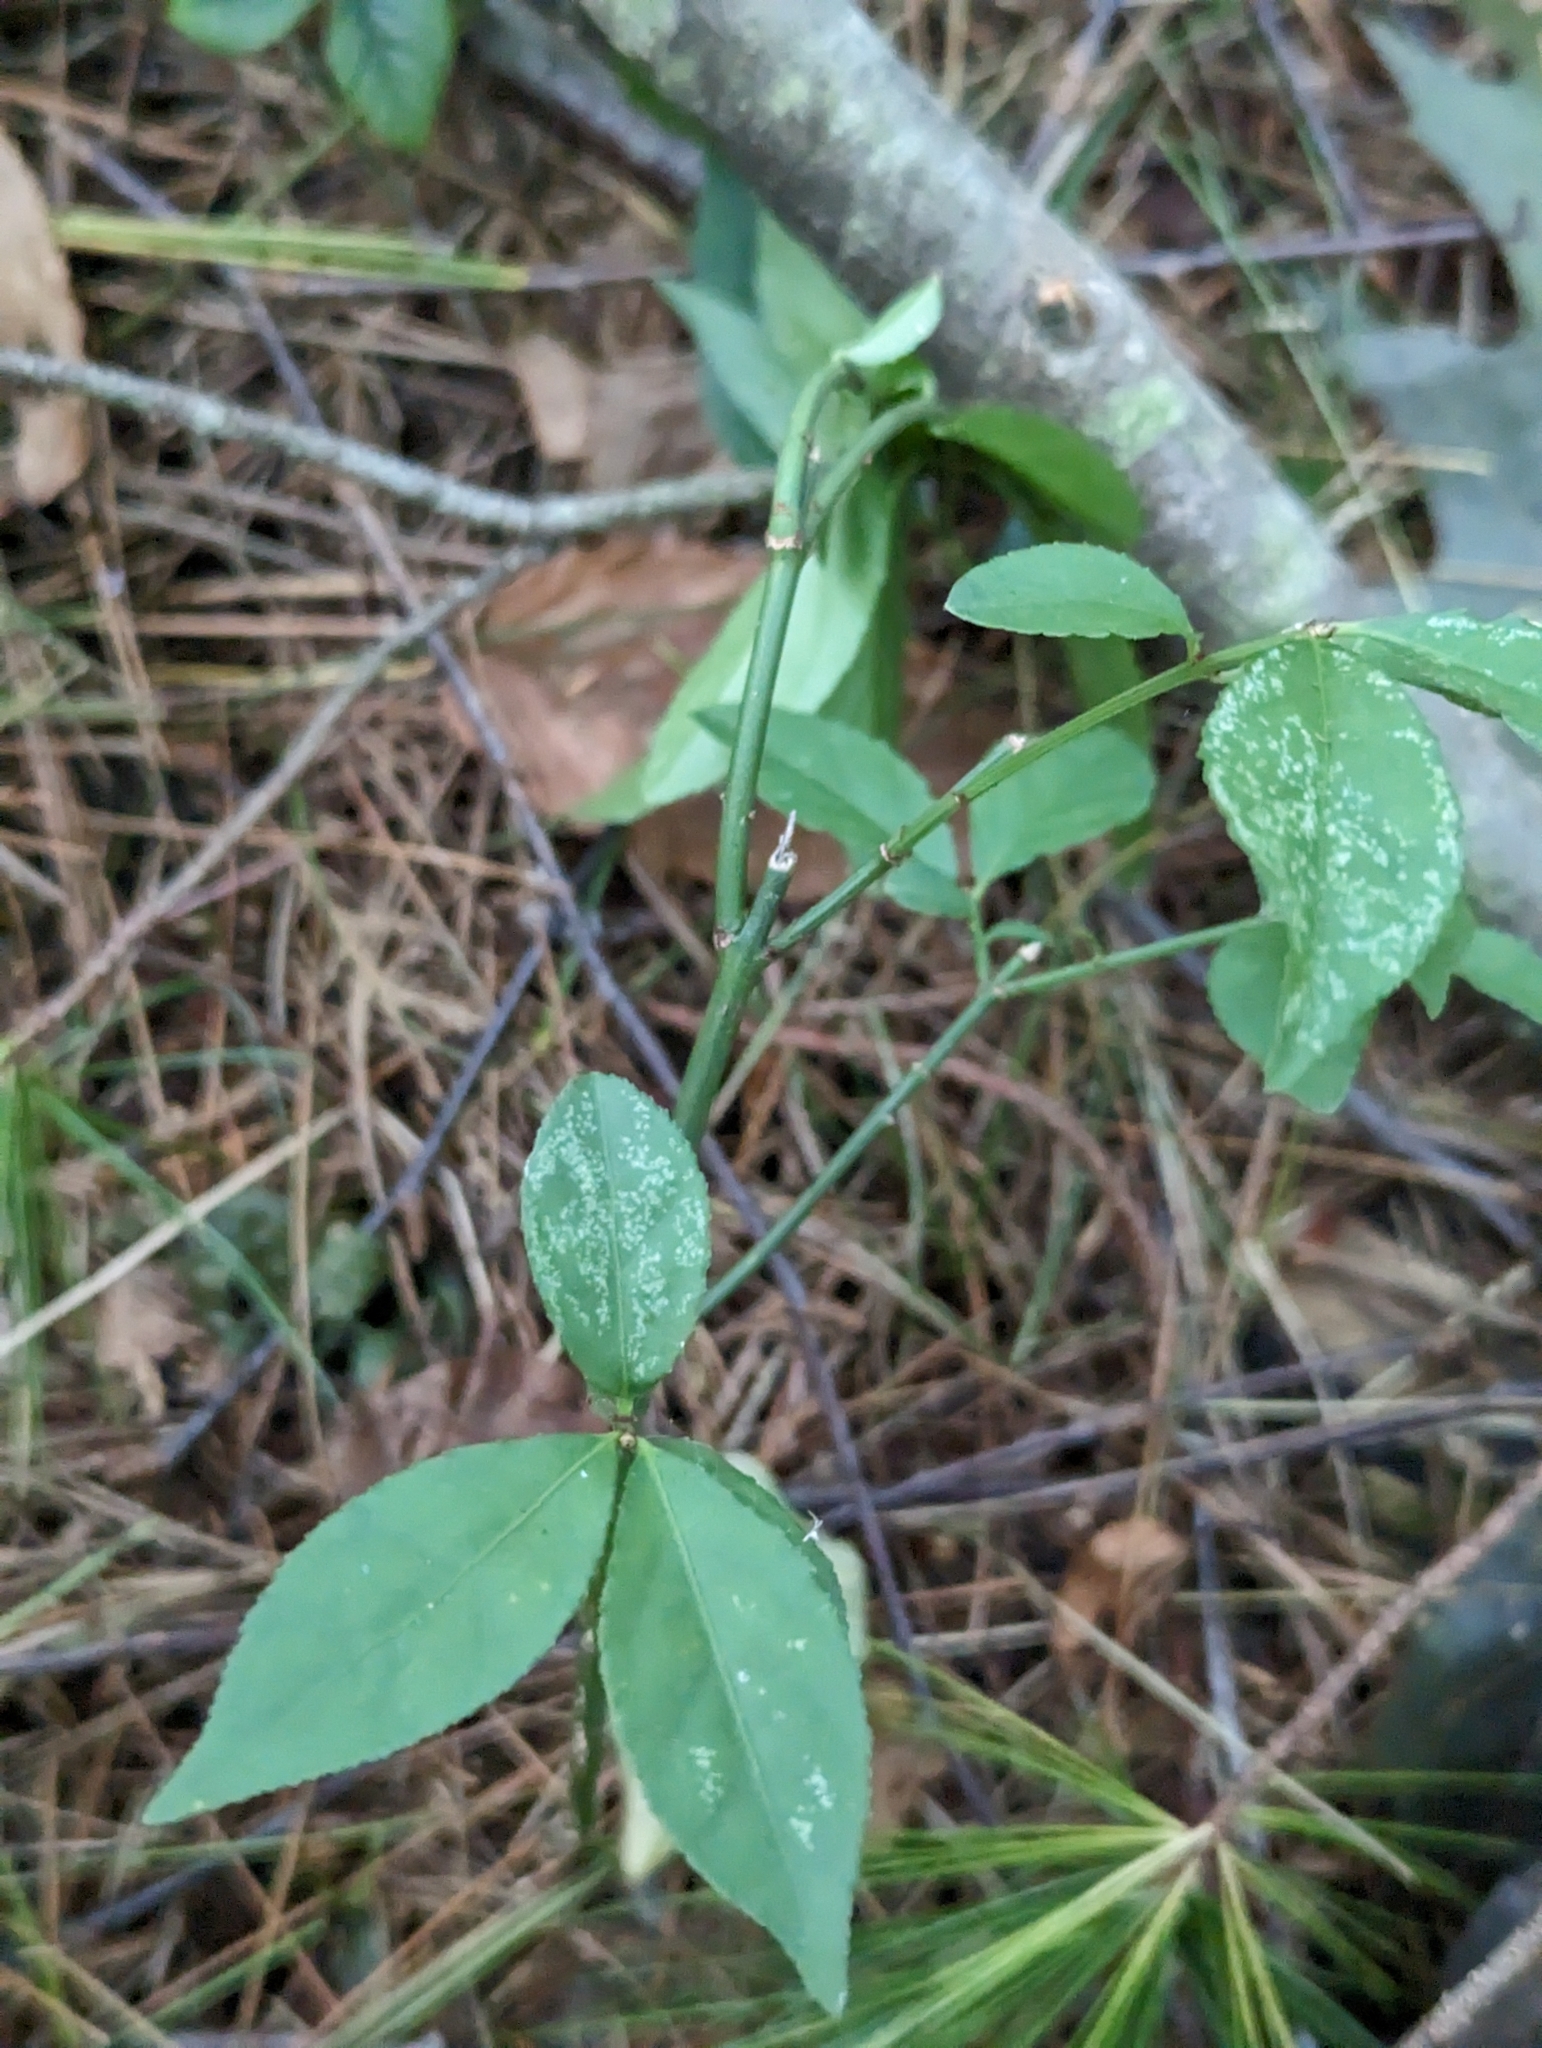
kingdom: Plantae
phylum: Tracheophyta
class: Magnoliopsida
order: Celastrales
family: Celastraceae
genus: Euonymus
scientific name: Euonymus alatus
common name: Winged euonymus
